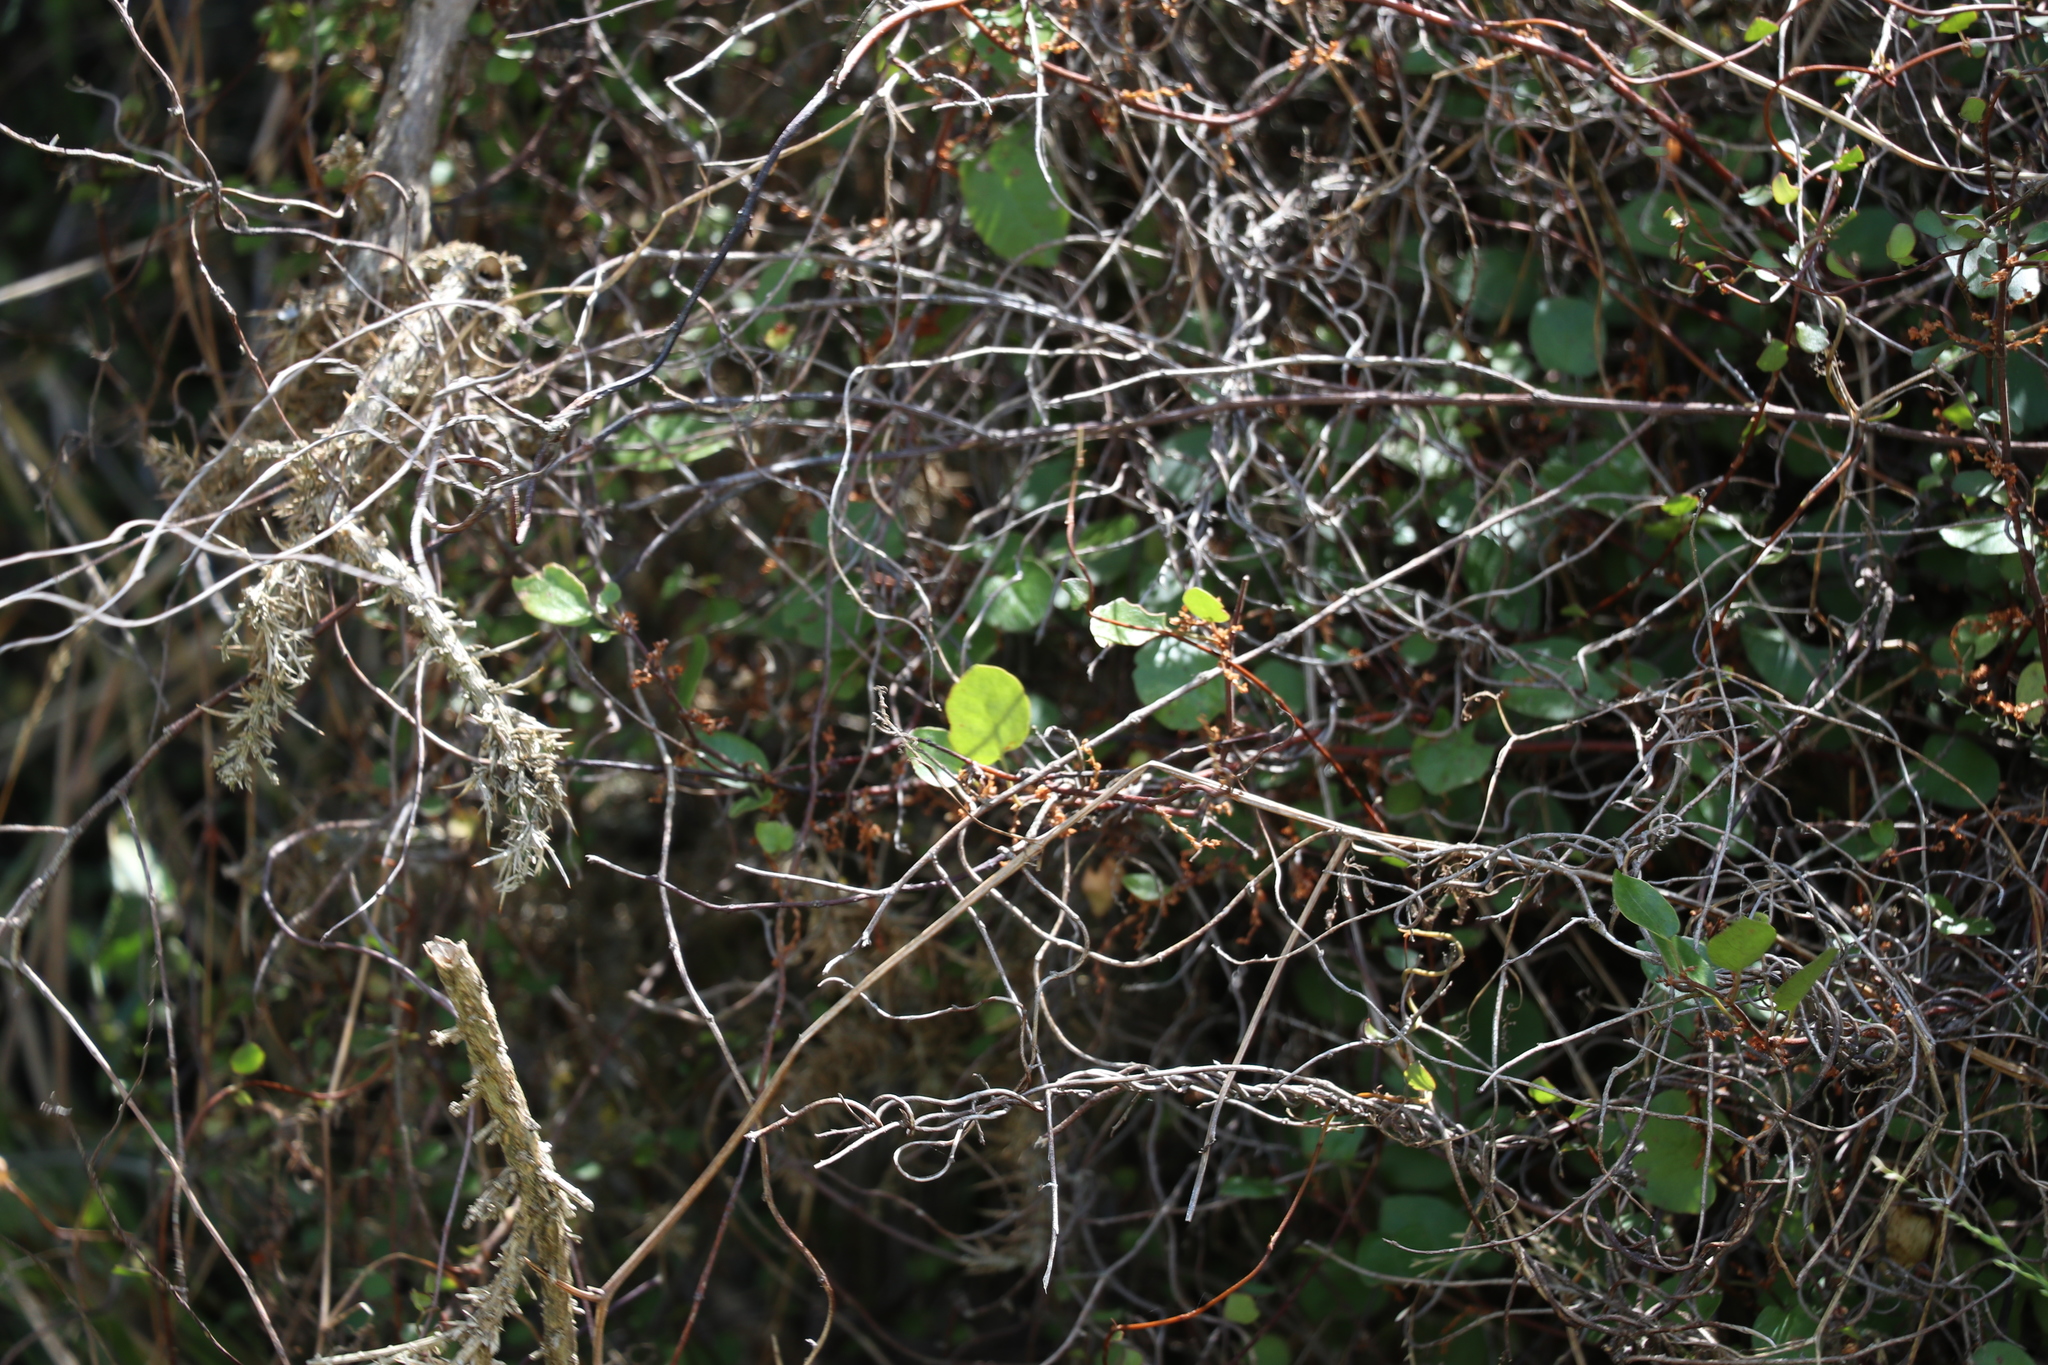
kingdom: Plantae
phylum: Tracheophyta
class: Magnoliopsida
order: Caryophyllales
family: Polygonaceae
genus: Muehlenbeckia
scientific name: Muehlenbeckia australis
